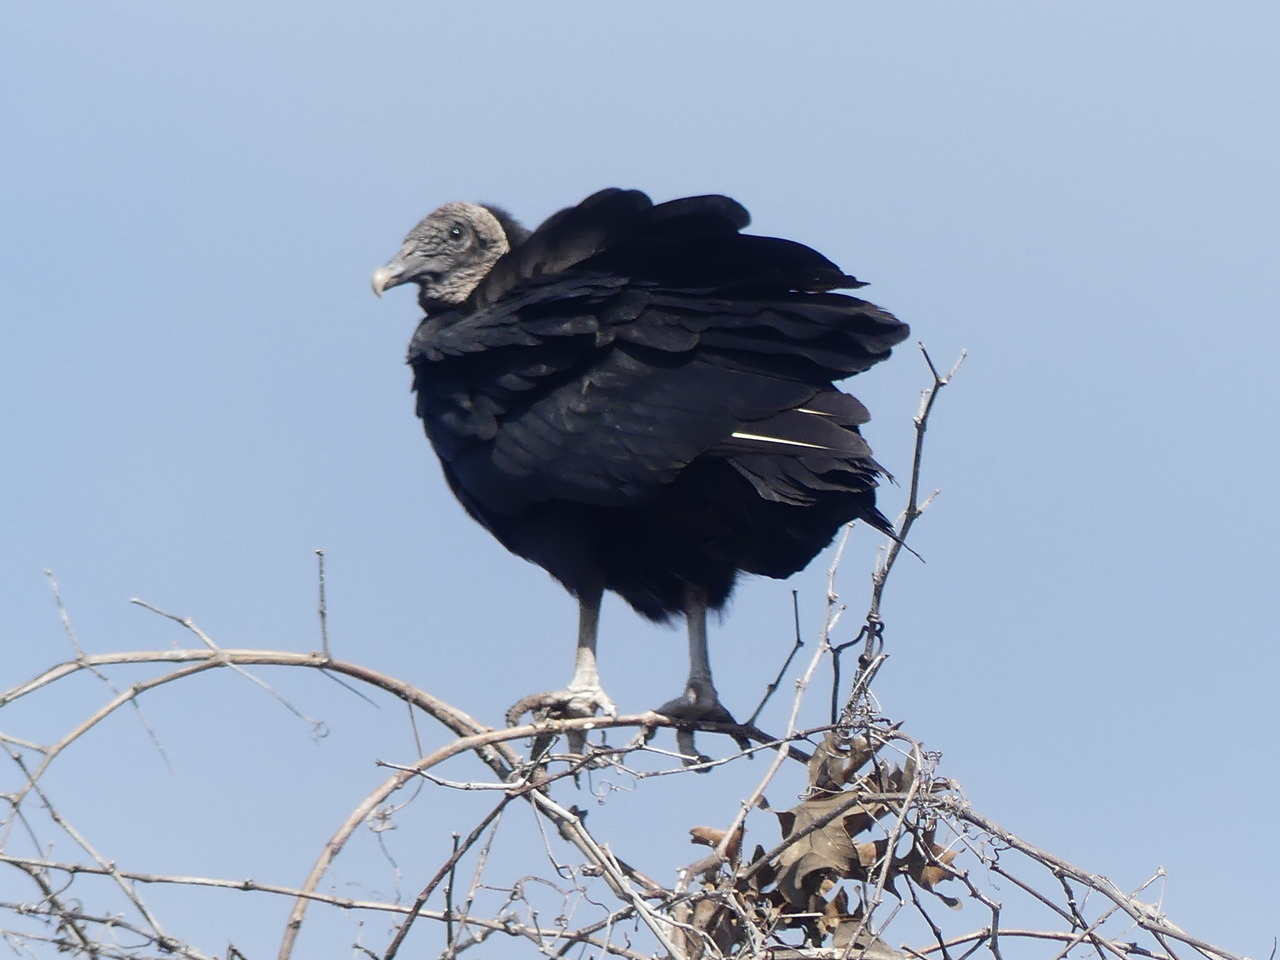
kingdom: Animalia
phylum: Chordata
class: Aves
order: Accipitriformes
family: Cathartidae
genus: Coragyps
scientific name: Coragyps atratus
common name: Black vulture
